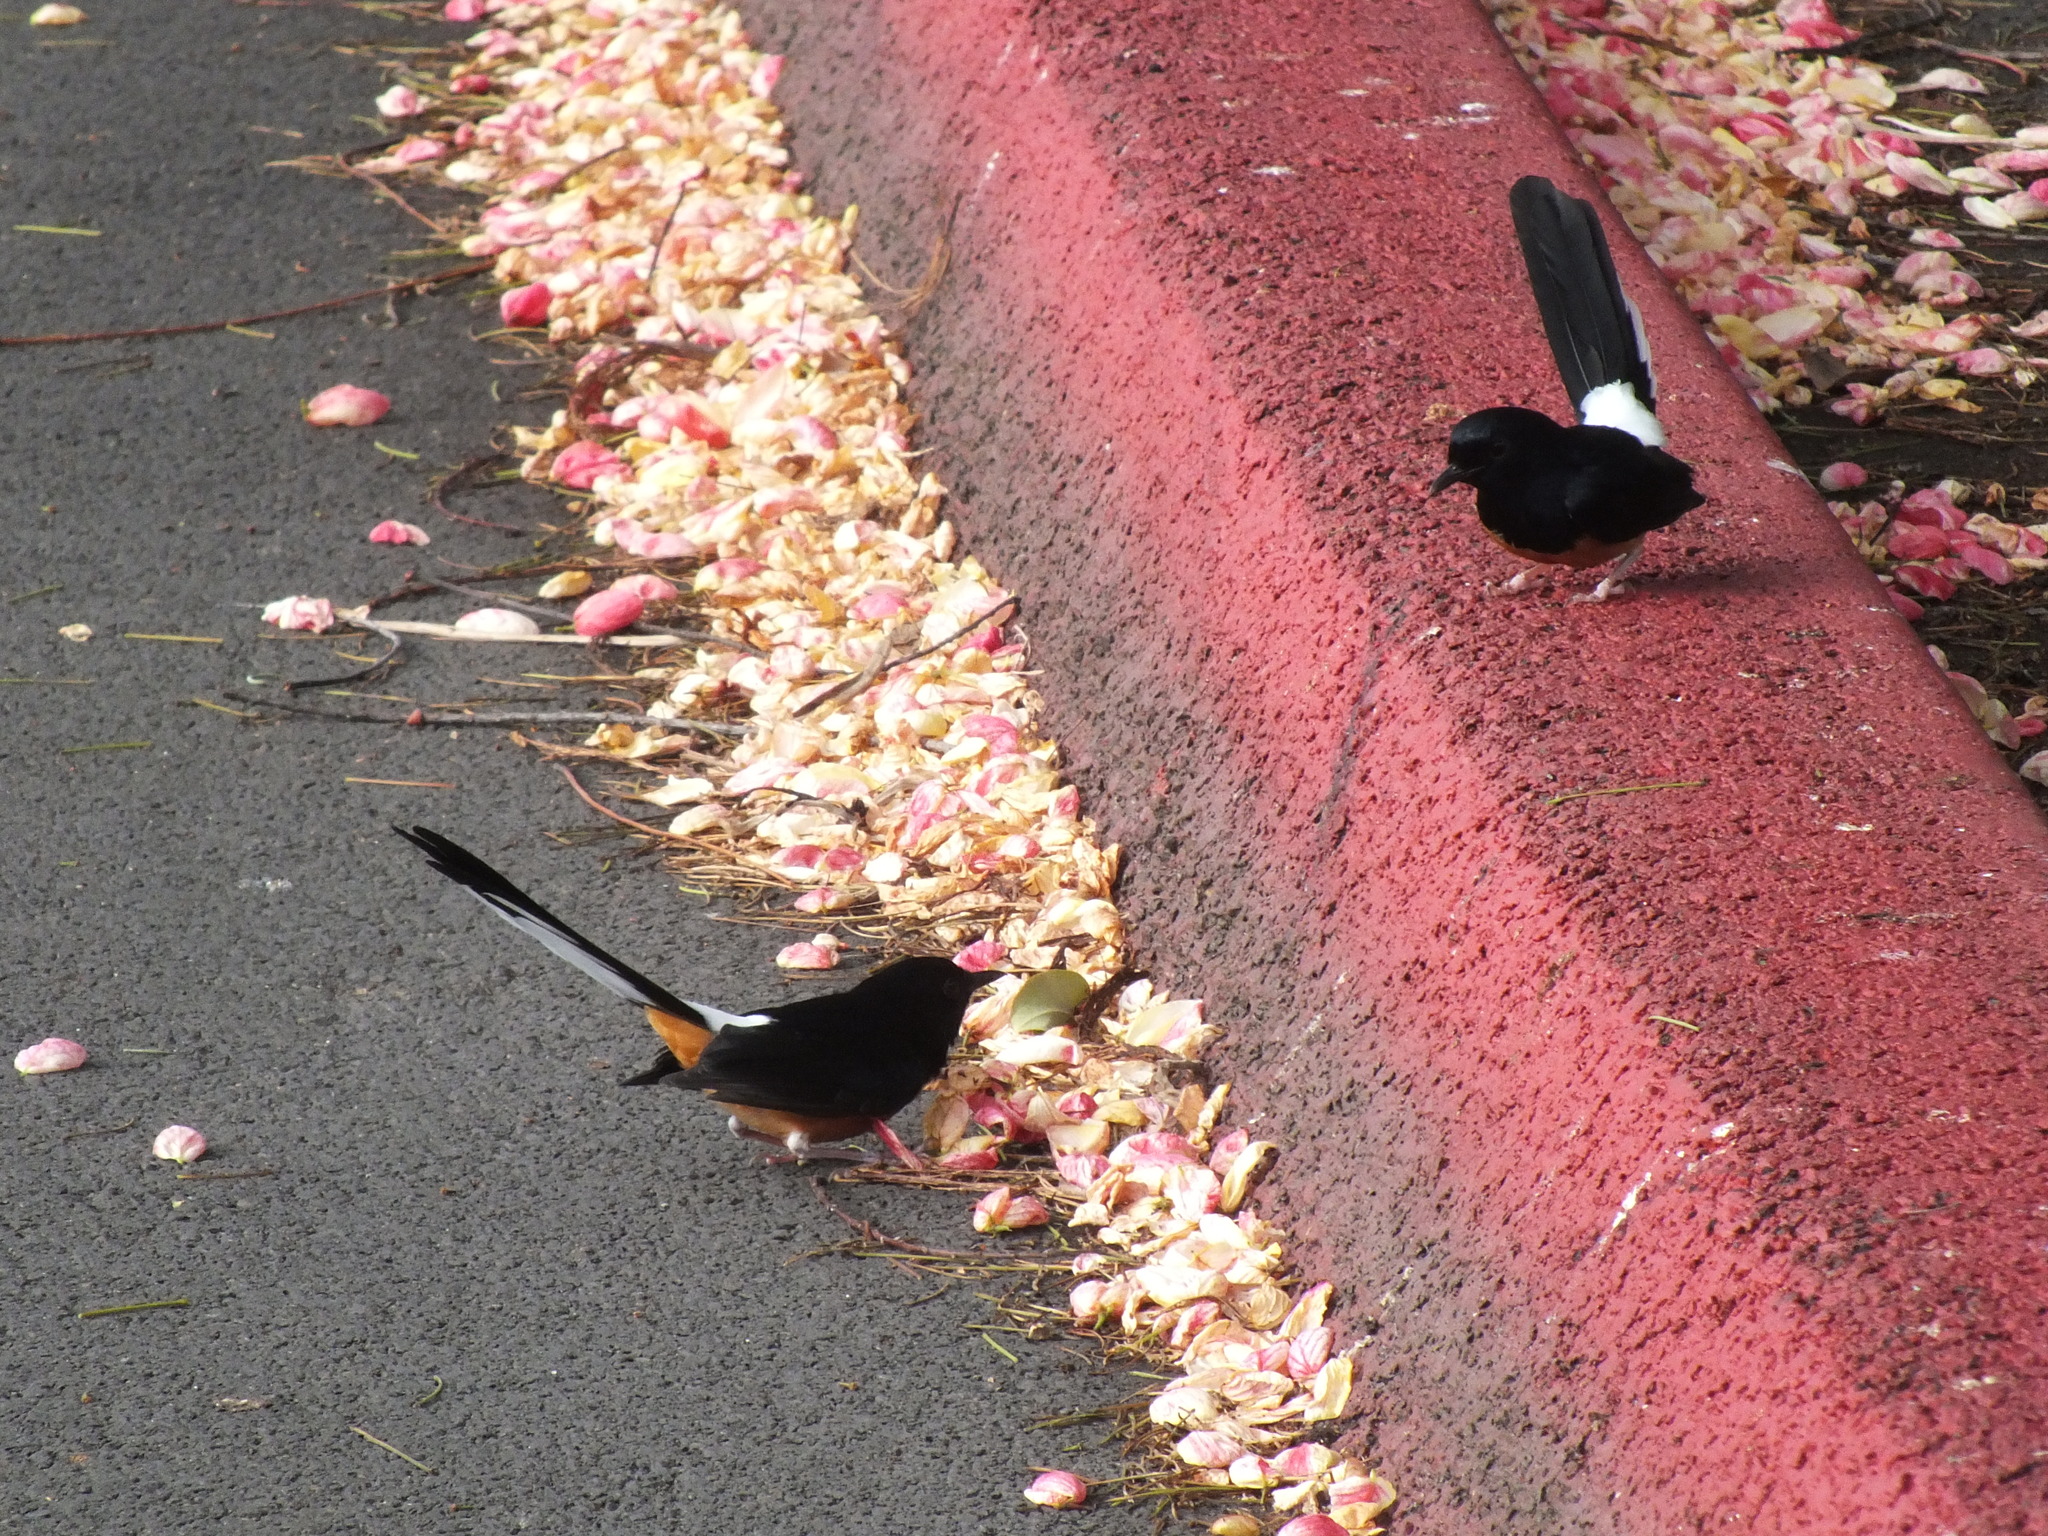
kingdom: Animalia
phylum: Chordata
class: Aves
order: Passeriformes
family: Muscicapidae
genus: Copsychus
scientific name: Copsychus malabaricus
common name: White-rumped shama
